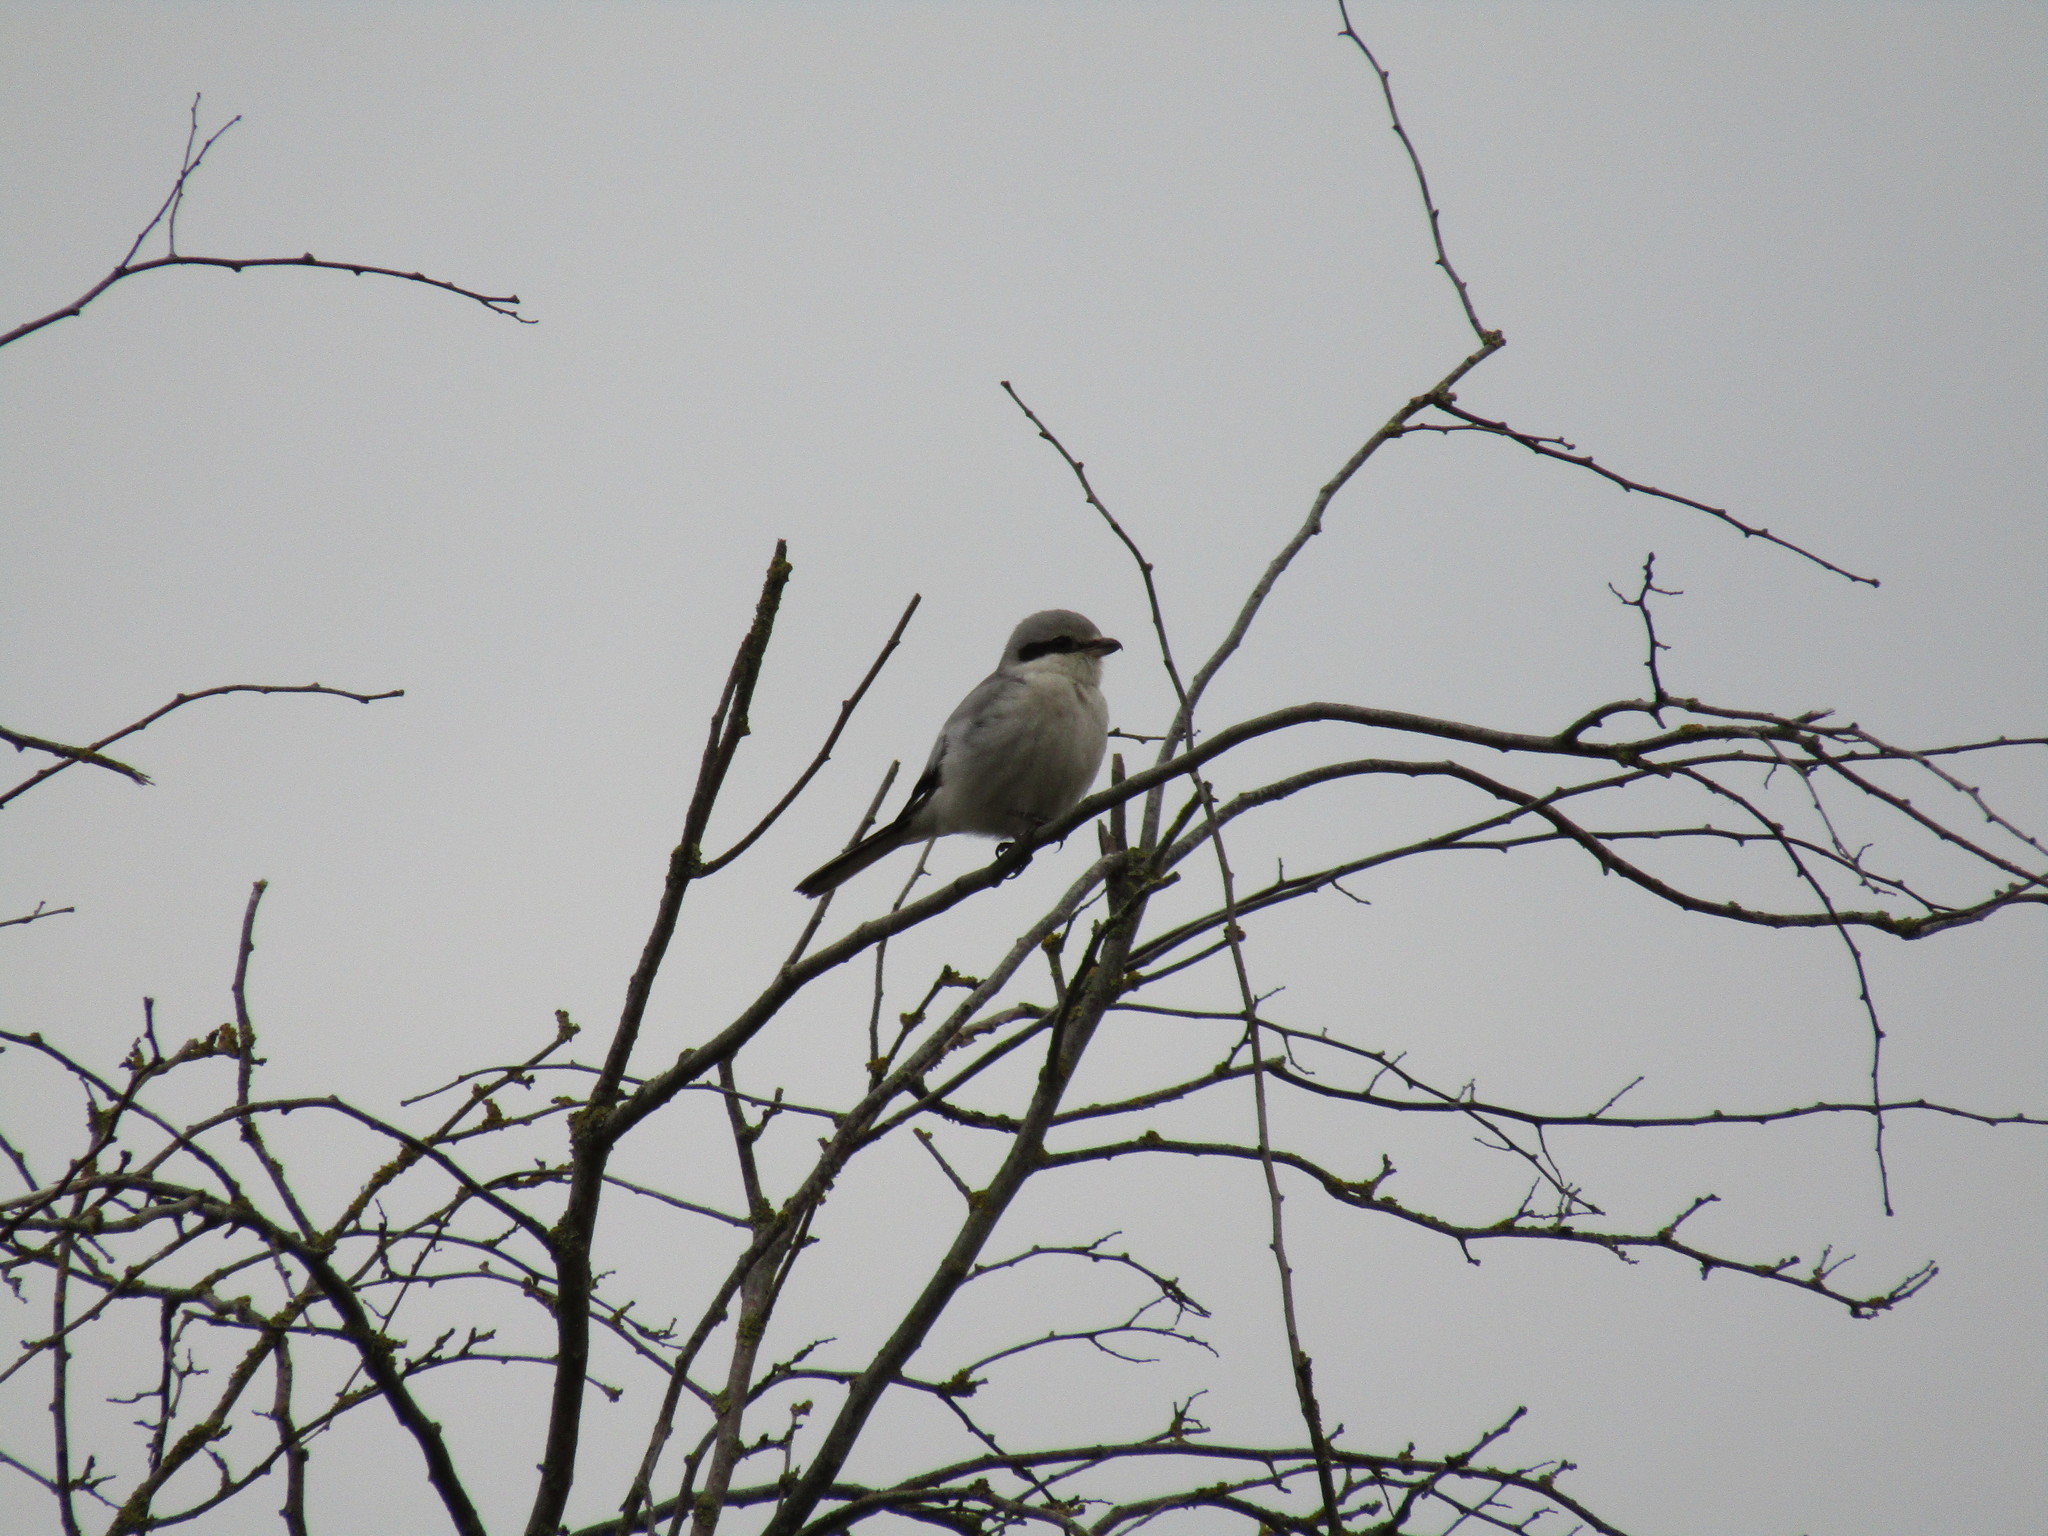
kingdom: Animalia
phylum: Chordata
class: Aves
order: Passeriformes
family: Laniidae
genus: Lanius
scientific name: Lanius excubitor
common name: Great grey shrike
